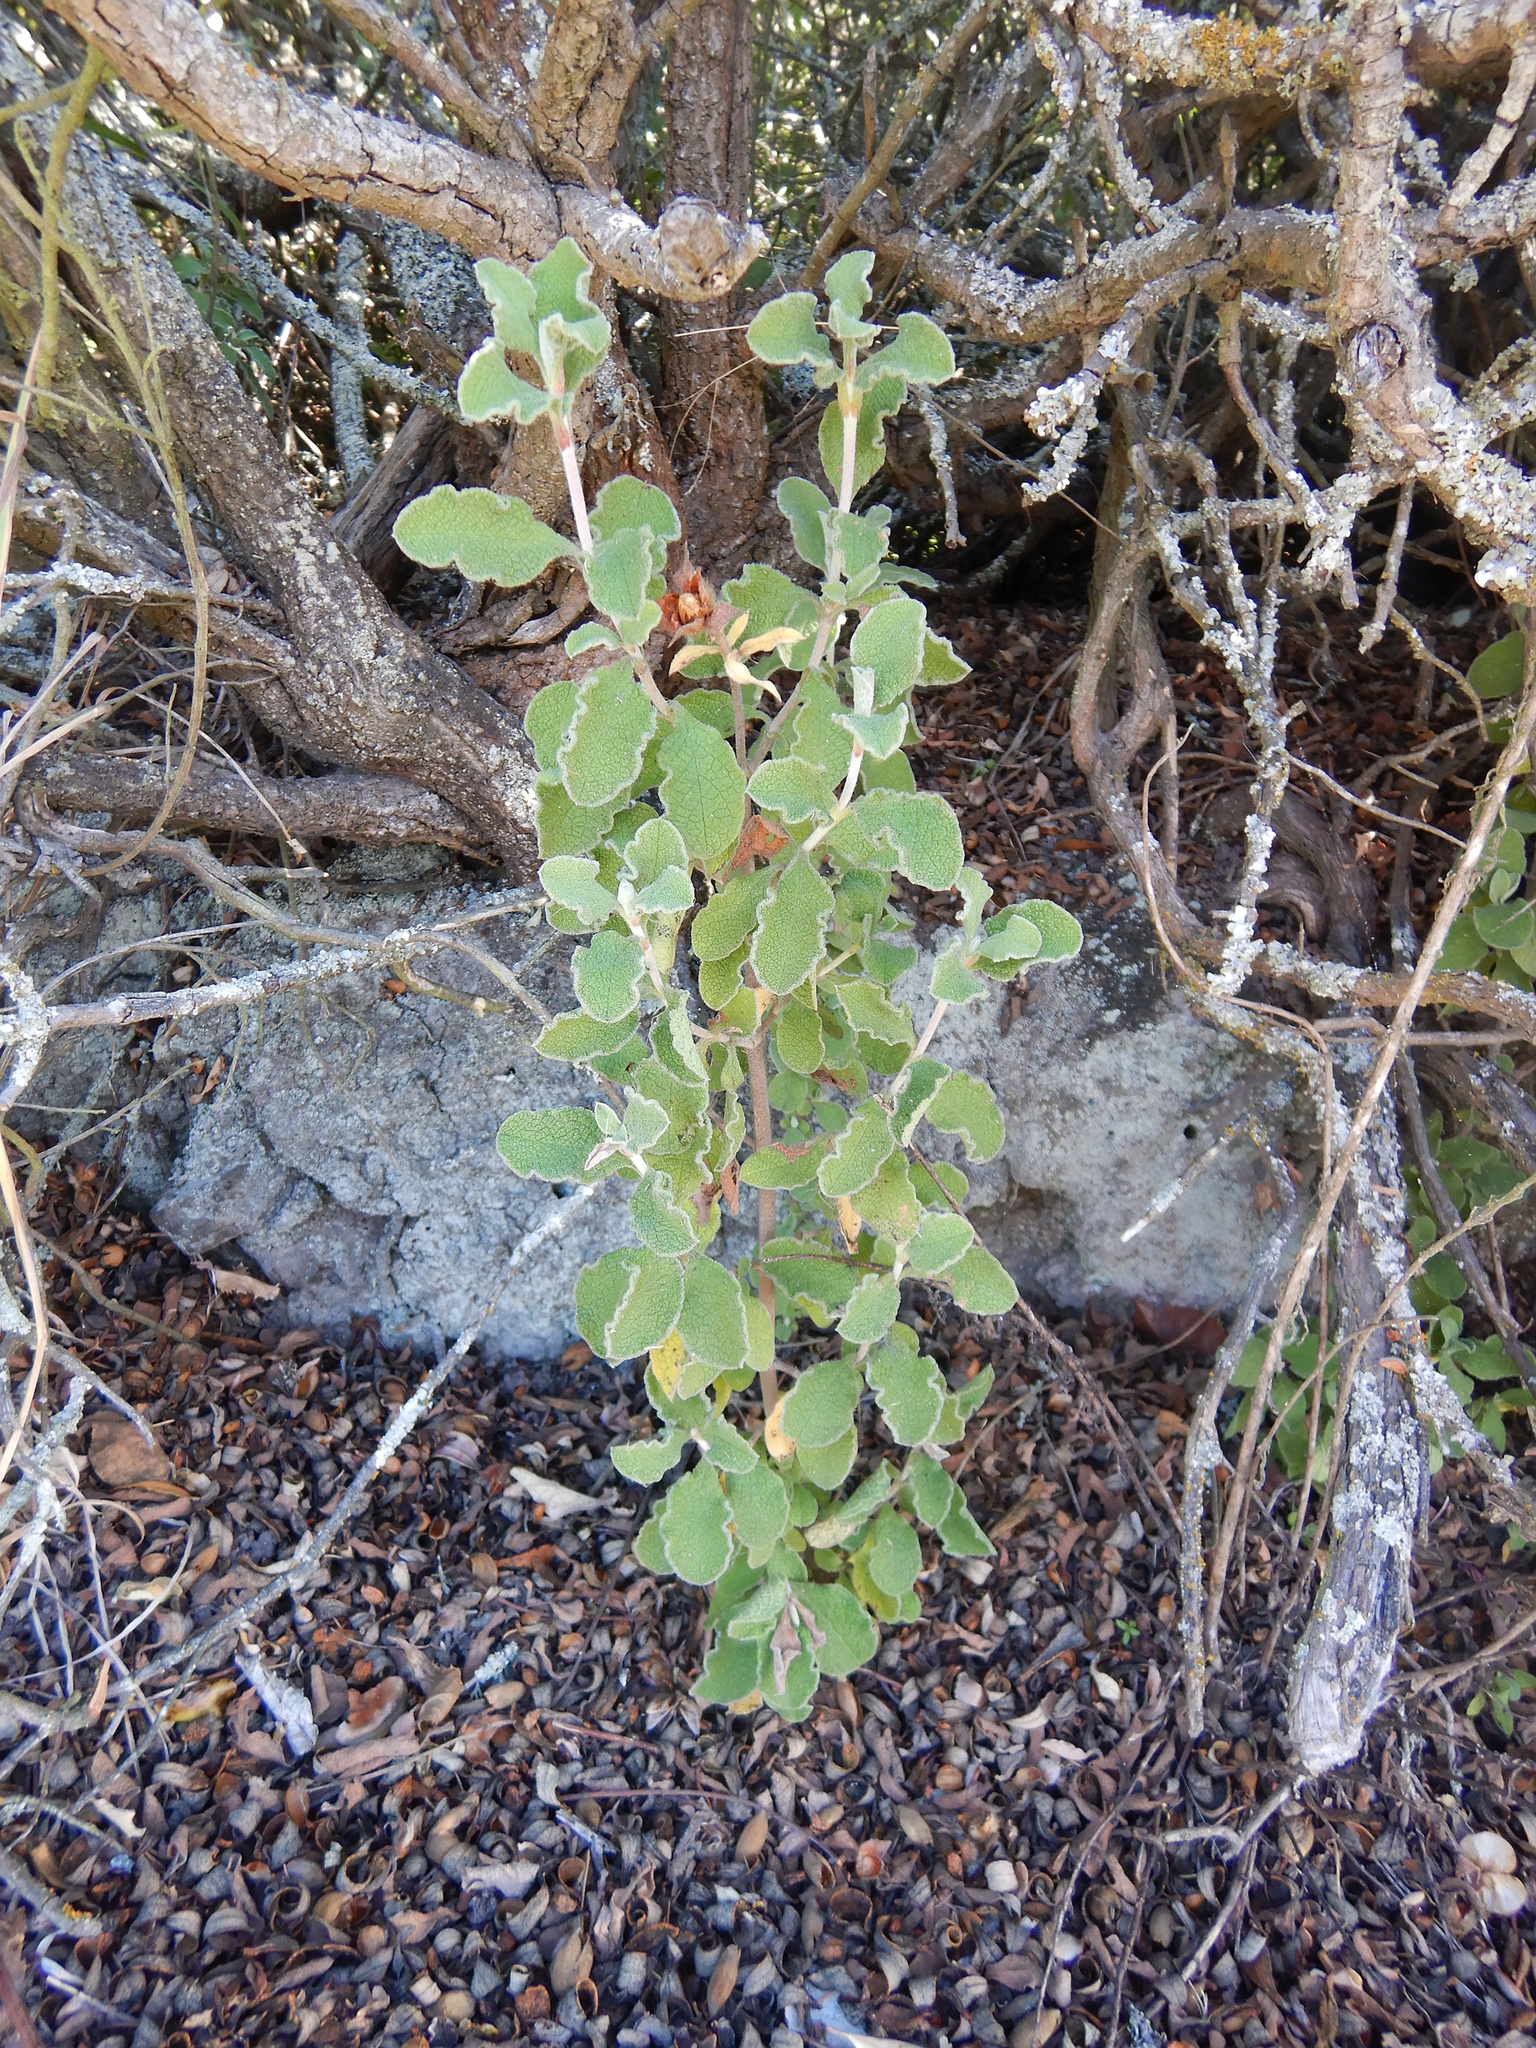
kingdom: Plantae
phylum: Tracheophyta
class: Magnoliopsida
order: Asterales
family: Asteraceae
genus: Helichrysum
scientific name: Helichrysum petiolare
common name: Licorice-plant
